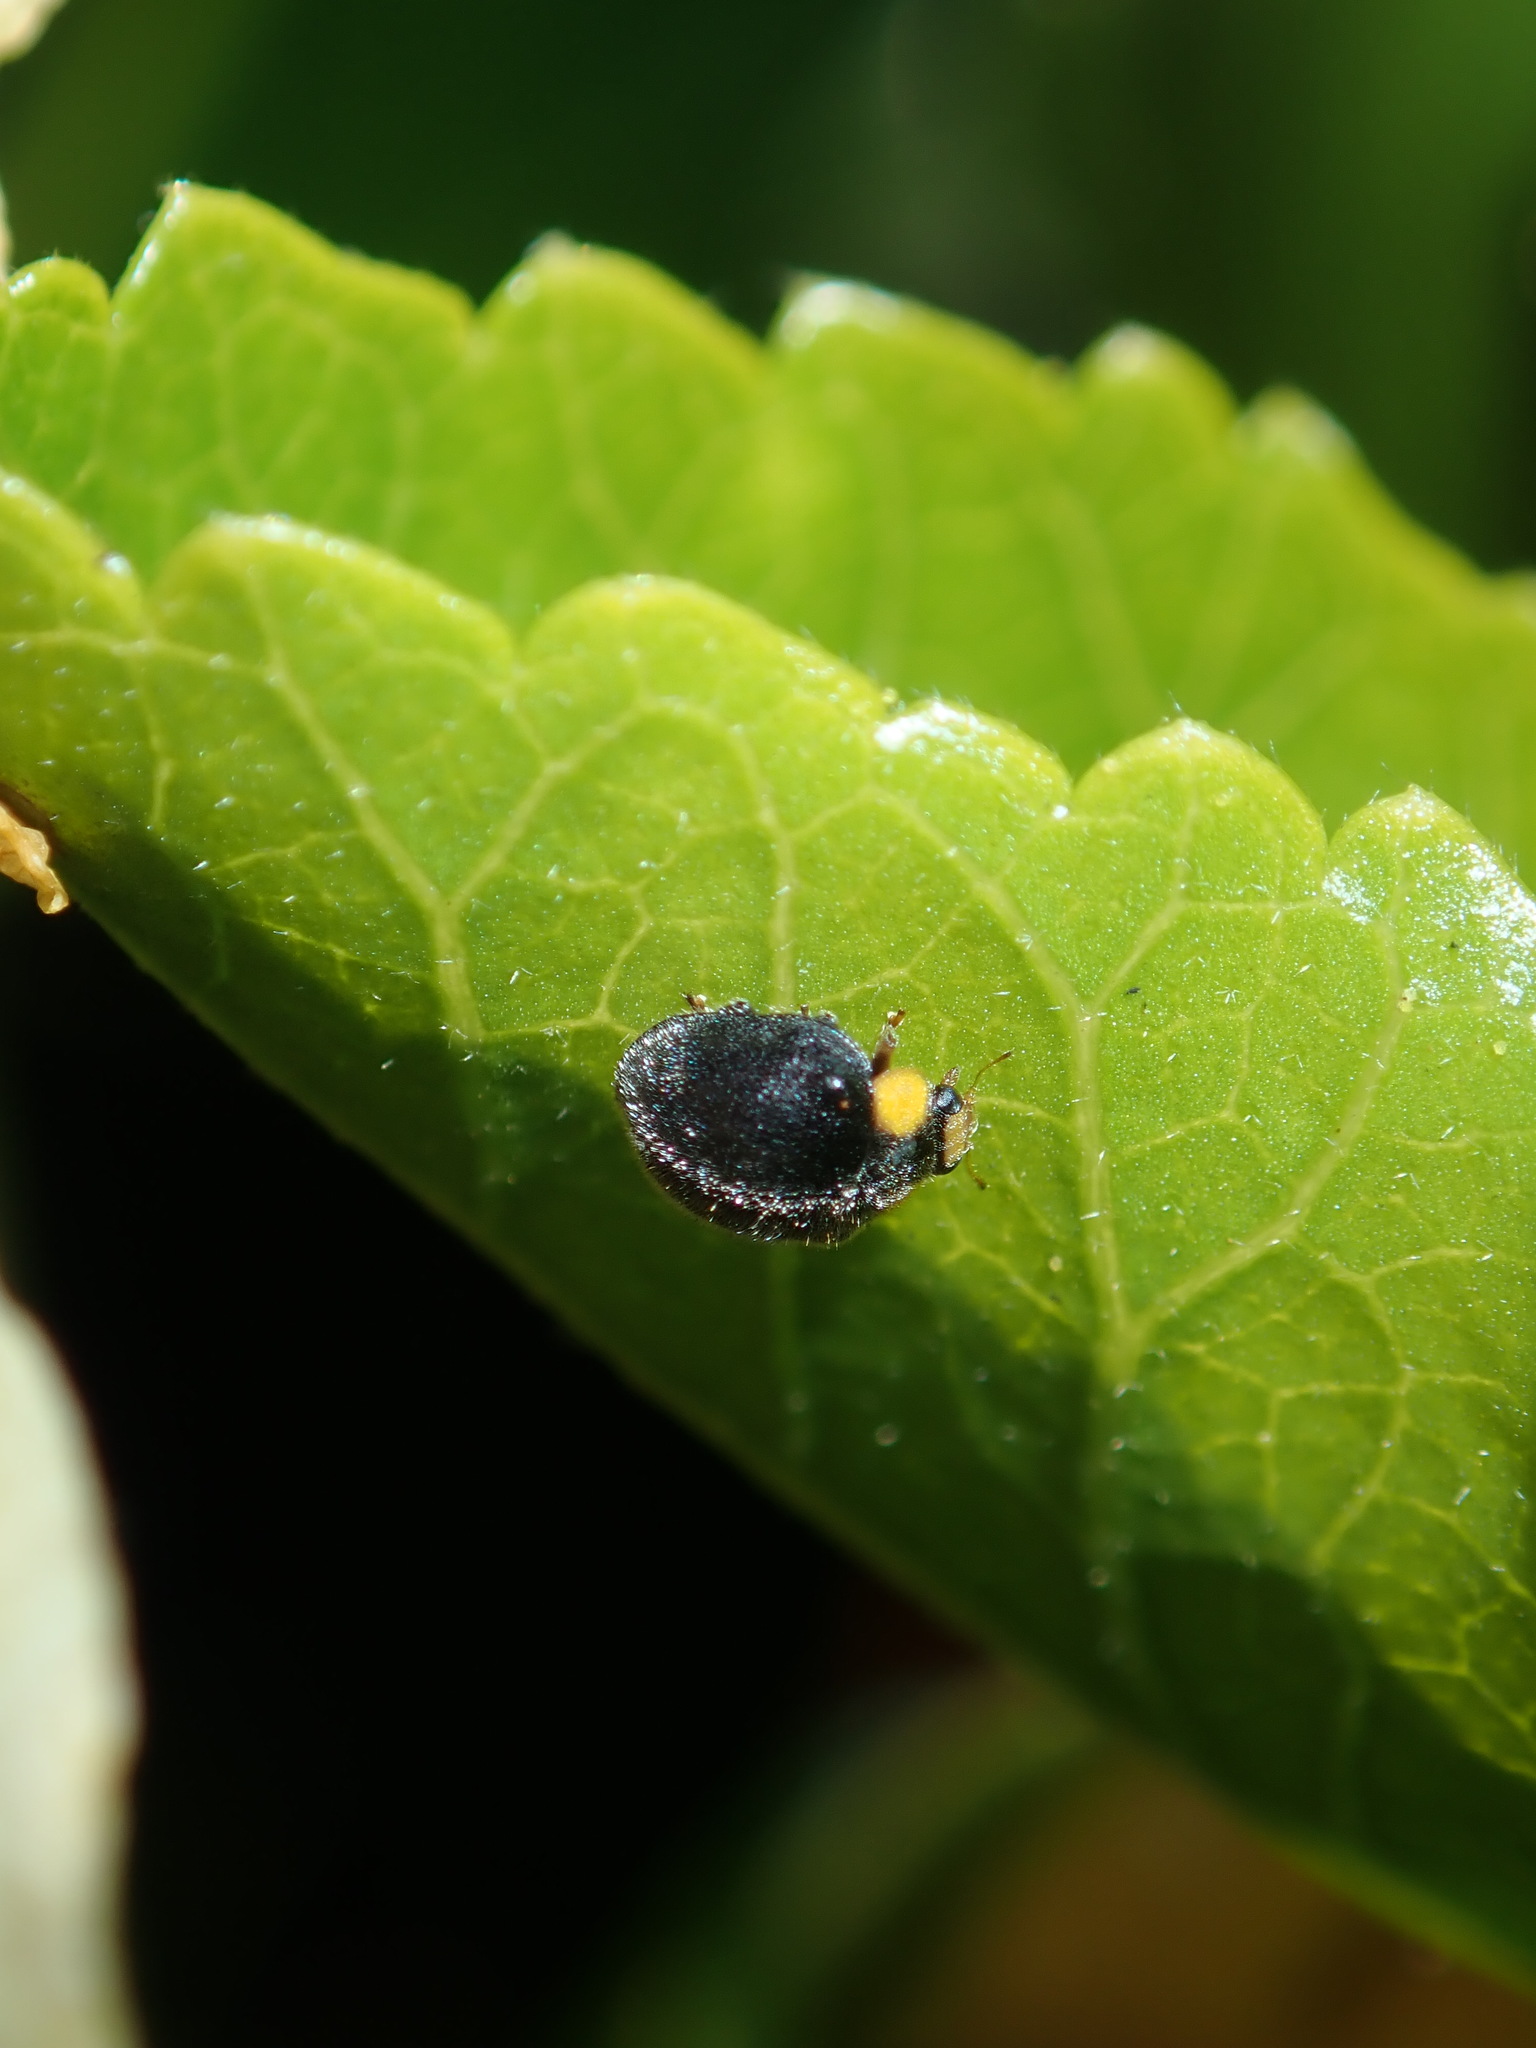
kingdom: Animalia
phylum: Arthropoda
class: Insecta
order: Coleoptera
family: Coccinellidae
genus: Scymnodes
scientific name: Scymnodes lividigaster
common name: Yellowshouldered lady beetle
